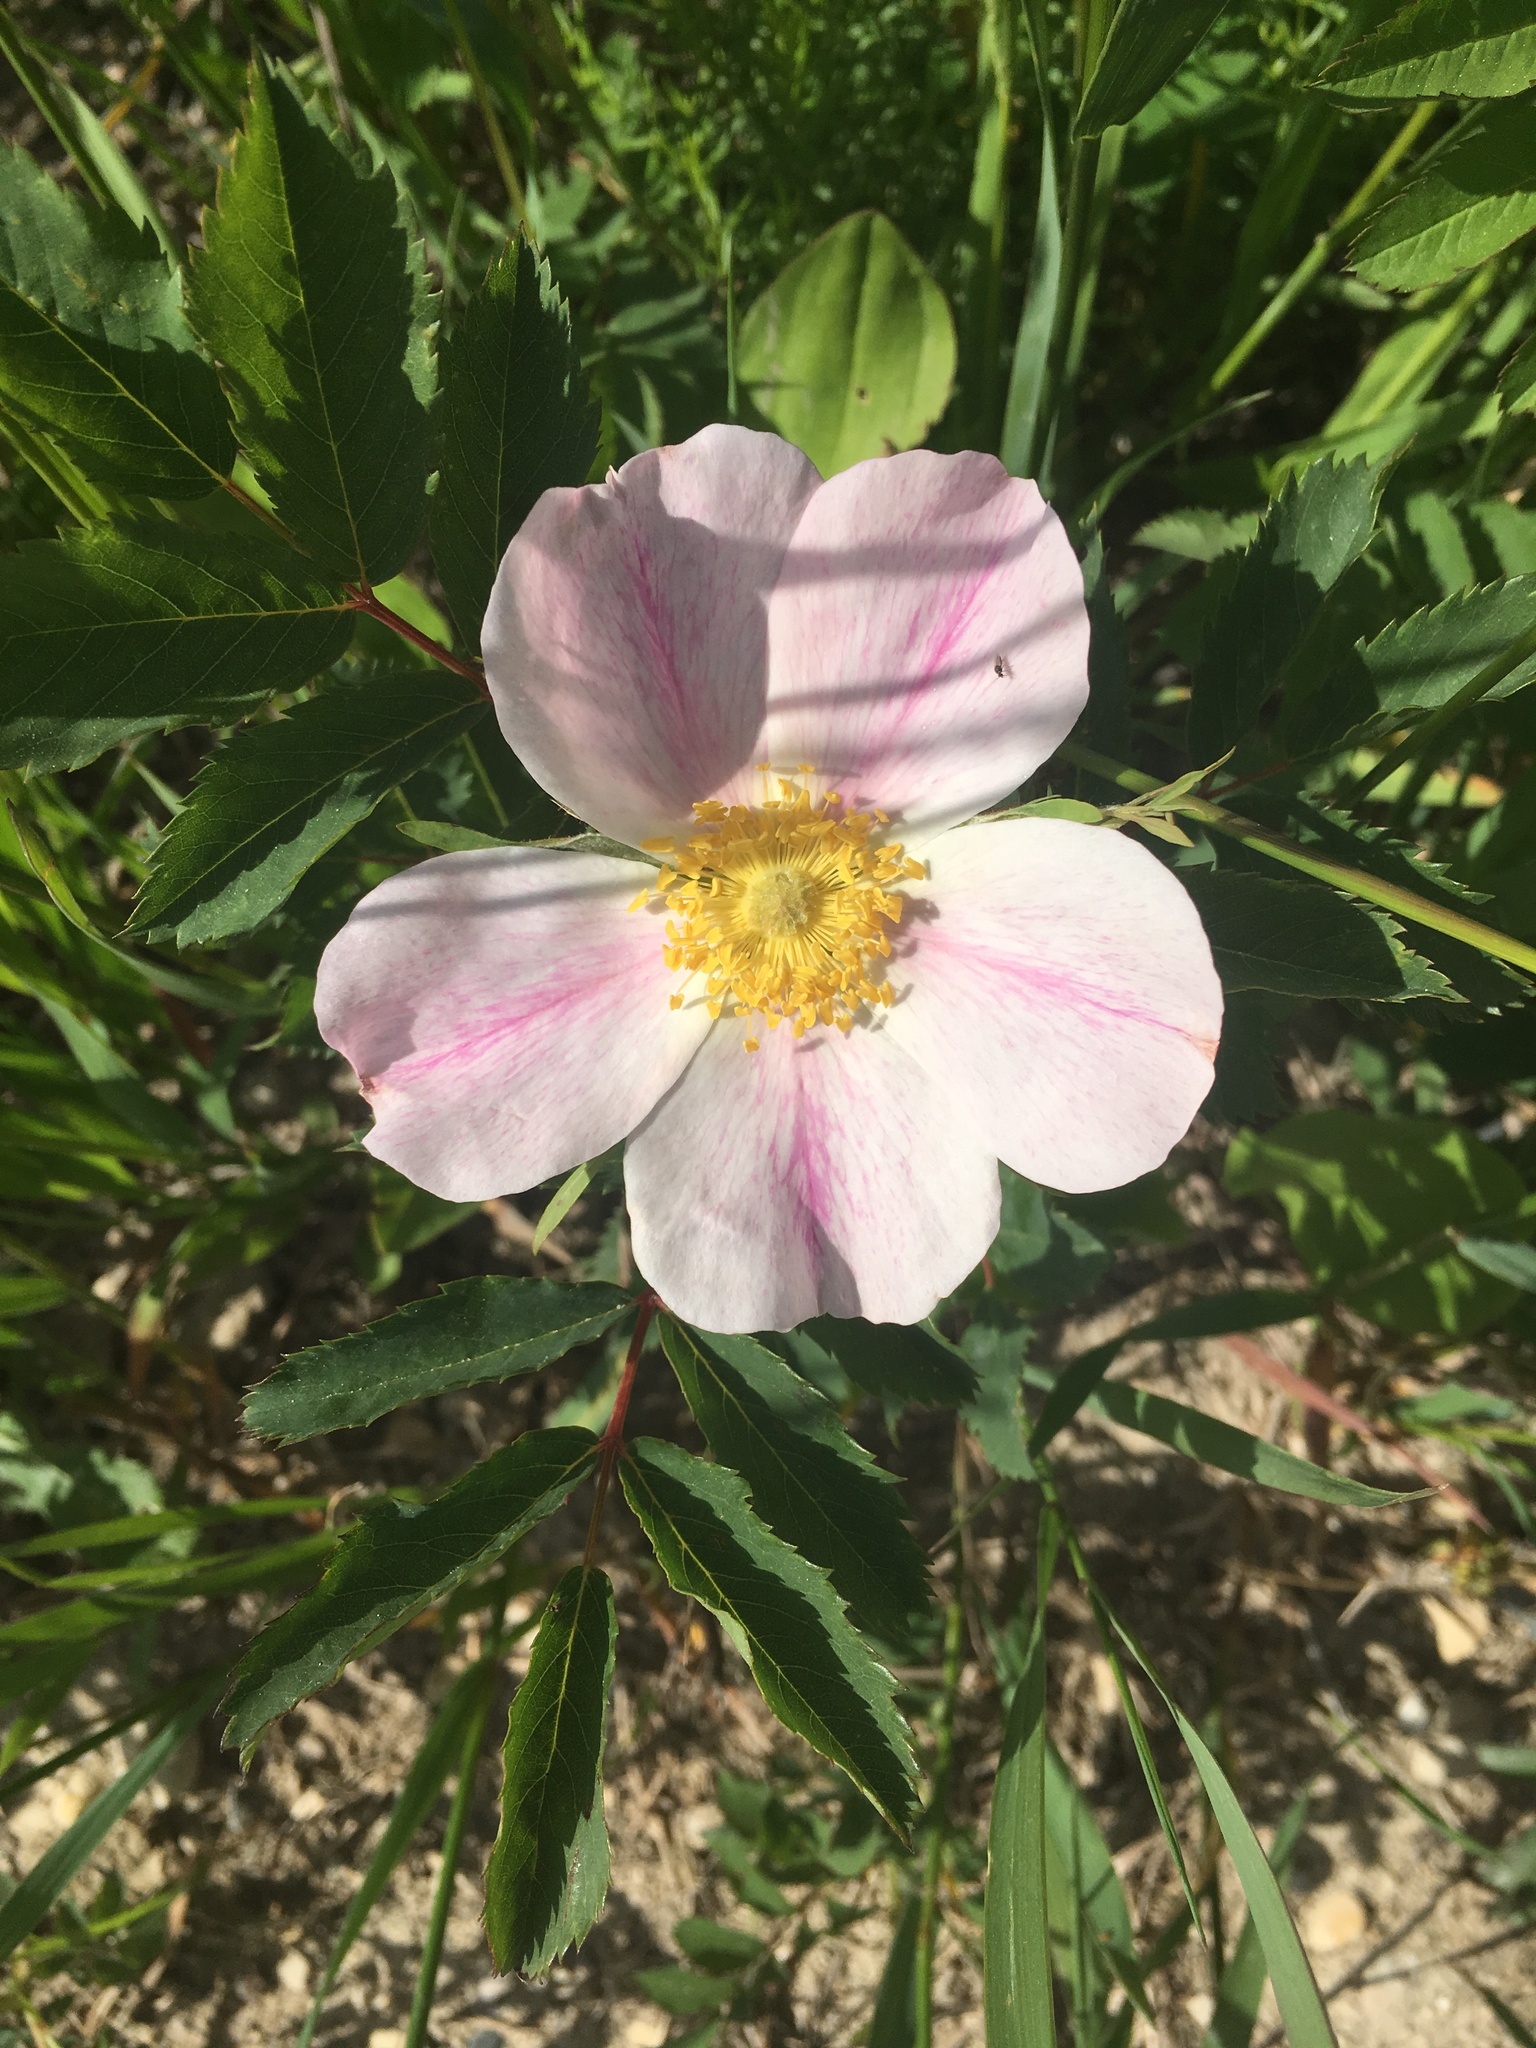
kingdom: Plantae
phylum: Tracheophyta
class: Magnoliopsida
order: Rosales
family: Rosaceae
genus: Rosa
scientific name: Rosa arkansana
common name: Prairie rose
